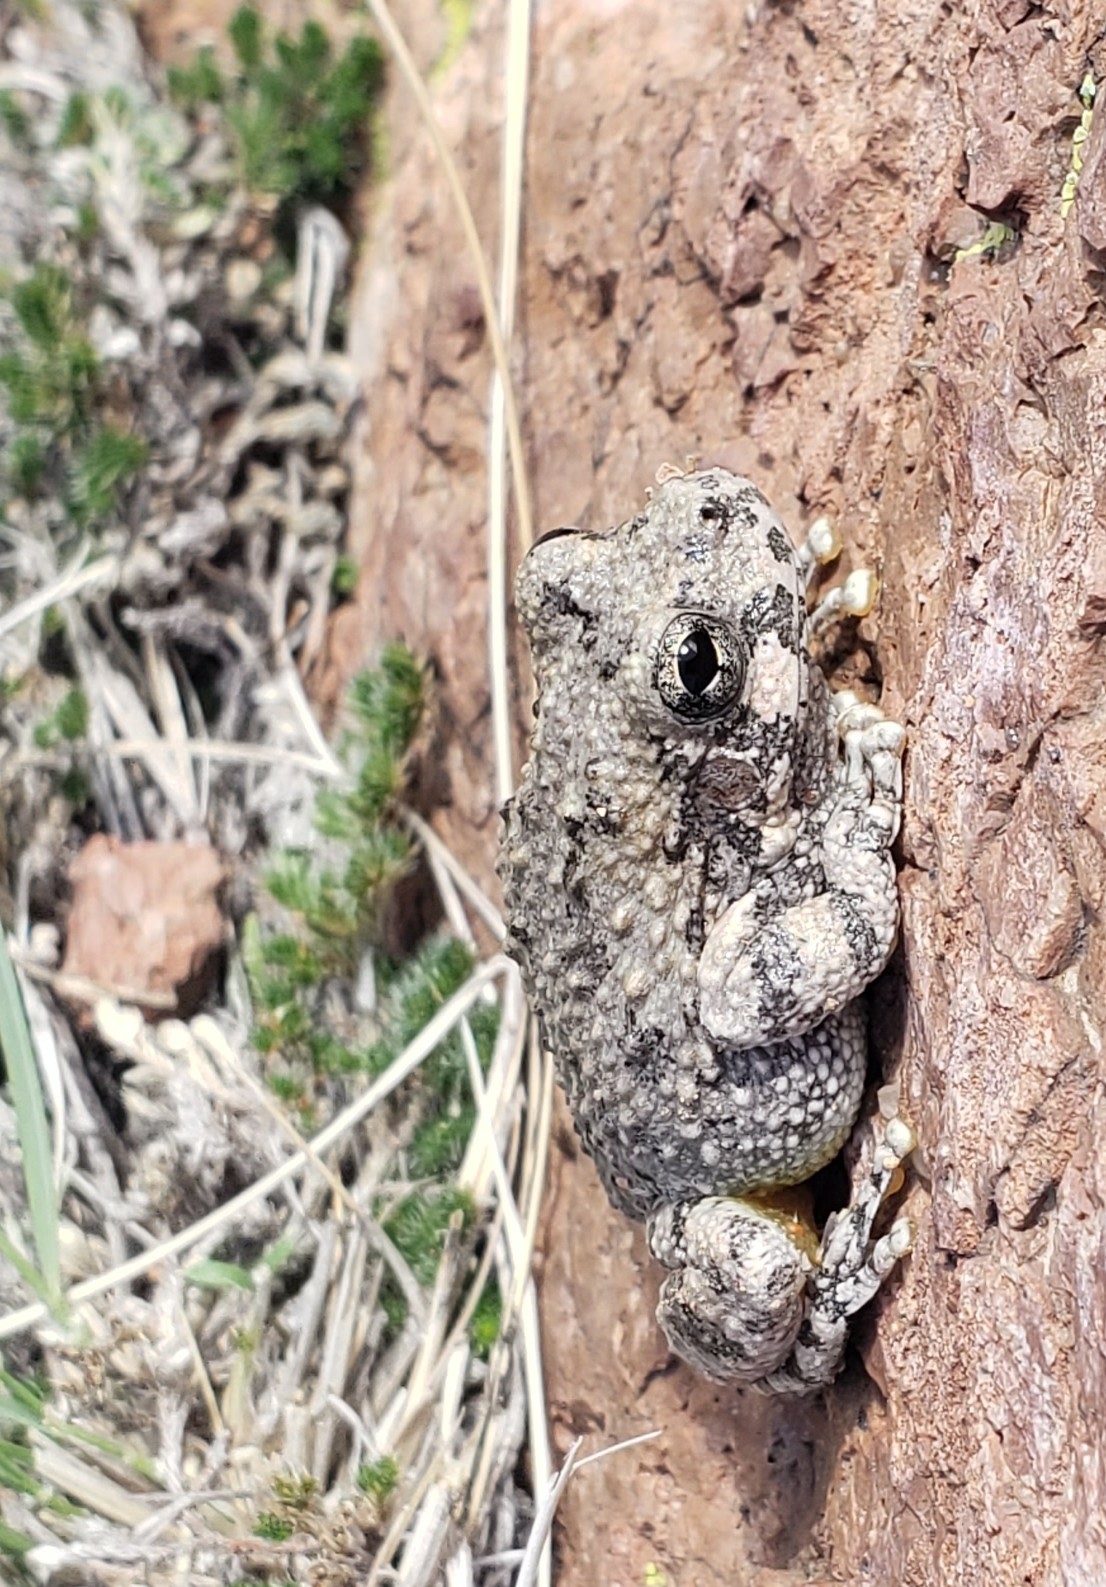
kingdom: Animalia
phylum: Chordata
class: Amphibia
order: Anura
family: Hylidae
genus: Dryophytes
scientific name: Dryophytes arenicolor
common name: Canyon treefrog
